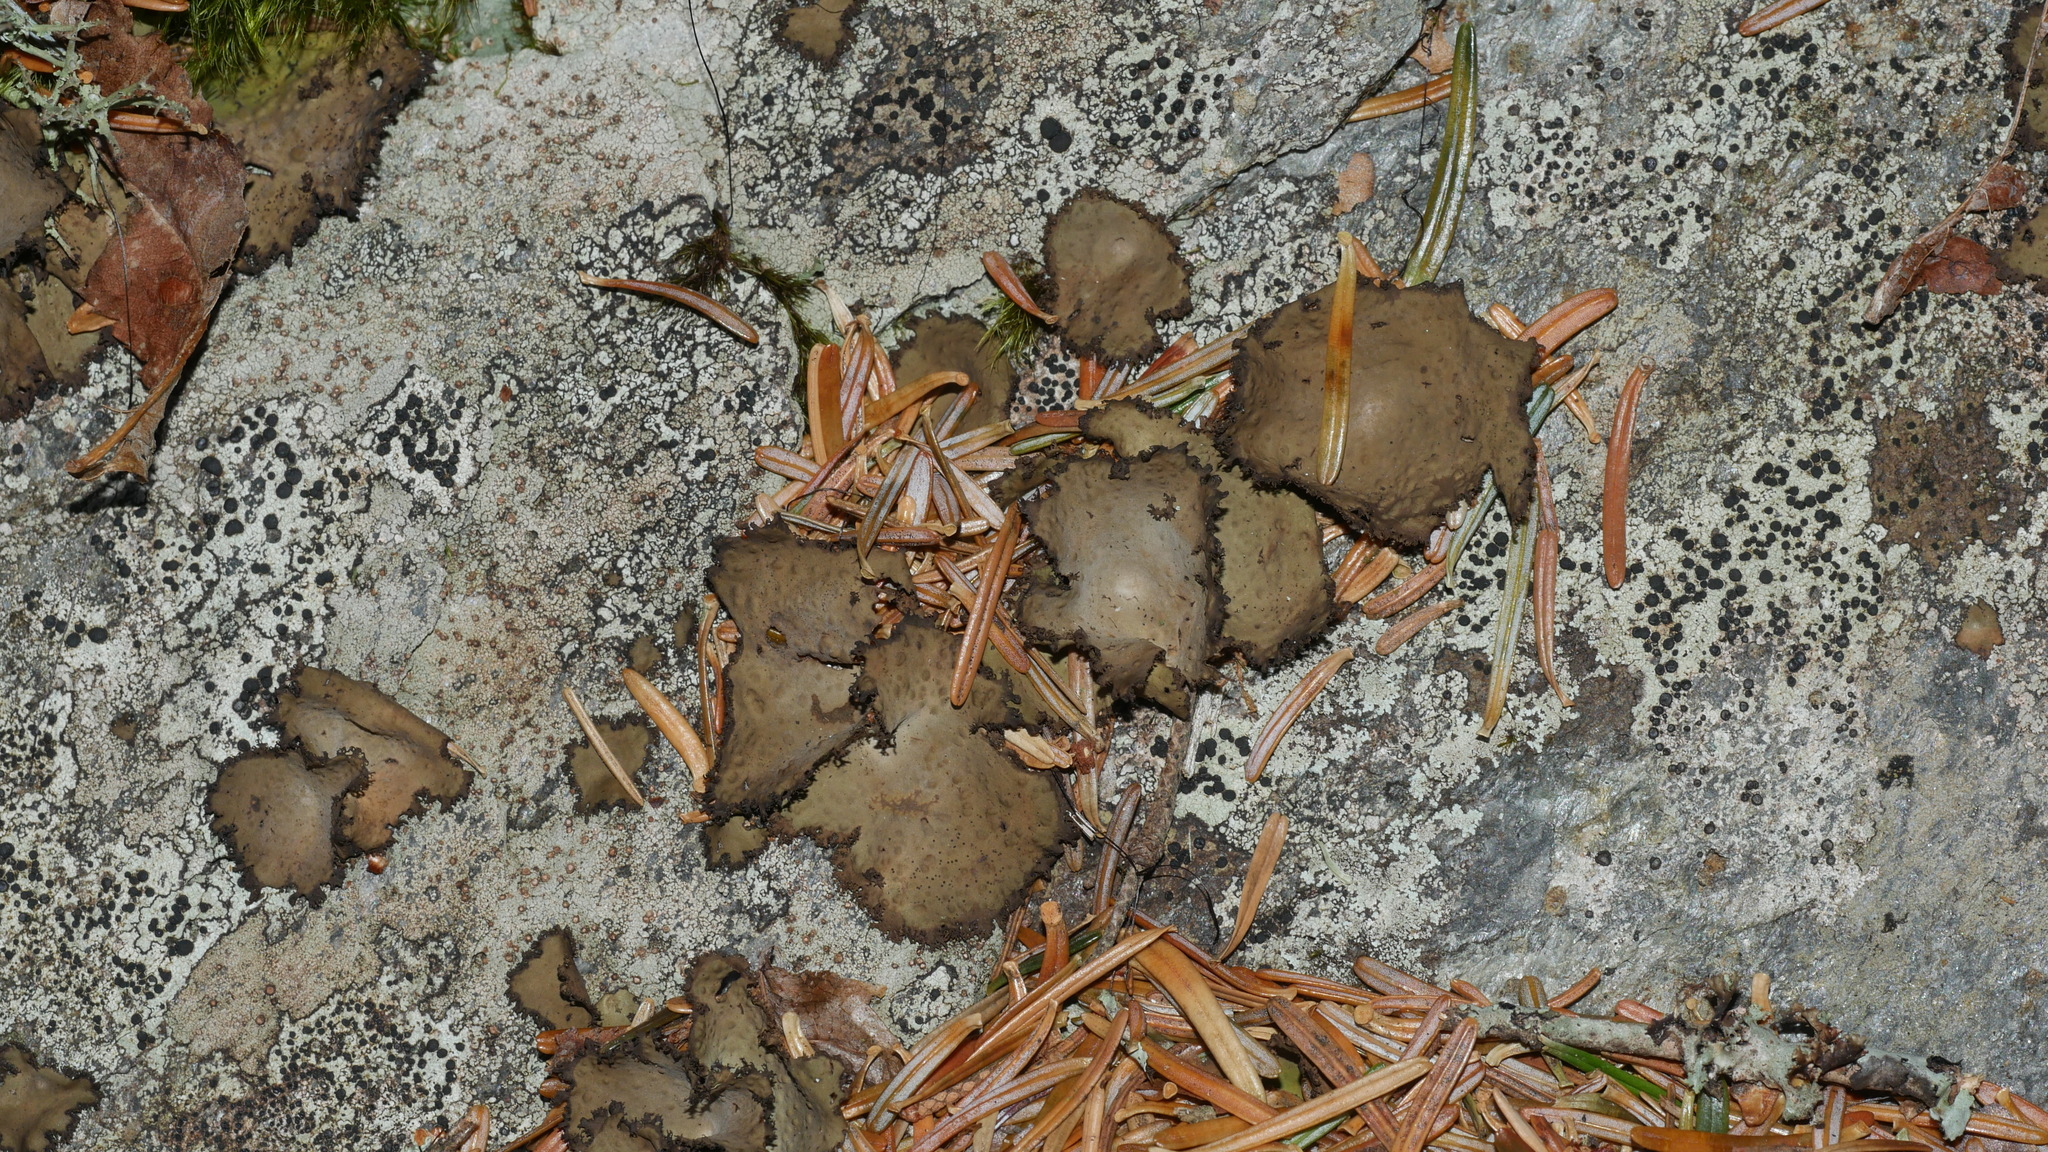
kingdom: Fungi
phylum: Ascomycota
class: Lecanoromycetes
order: Umbilicariales
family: Umbilicariaceae
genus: Lasallia
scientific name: Lasallia pensylvanica
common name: Blackened toadskin lichen
